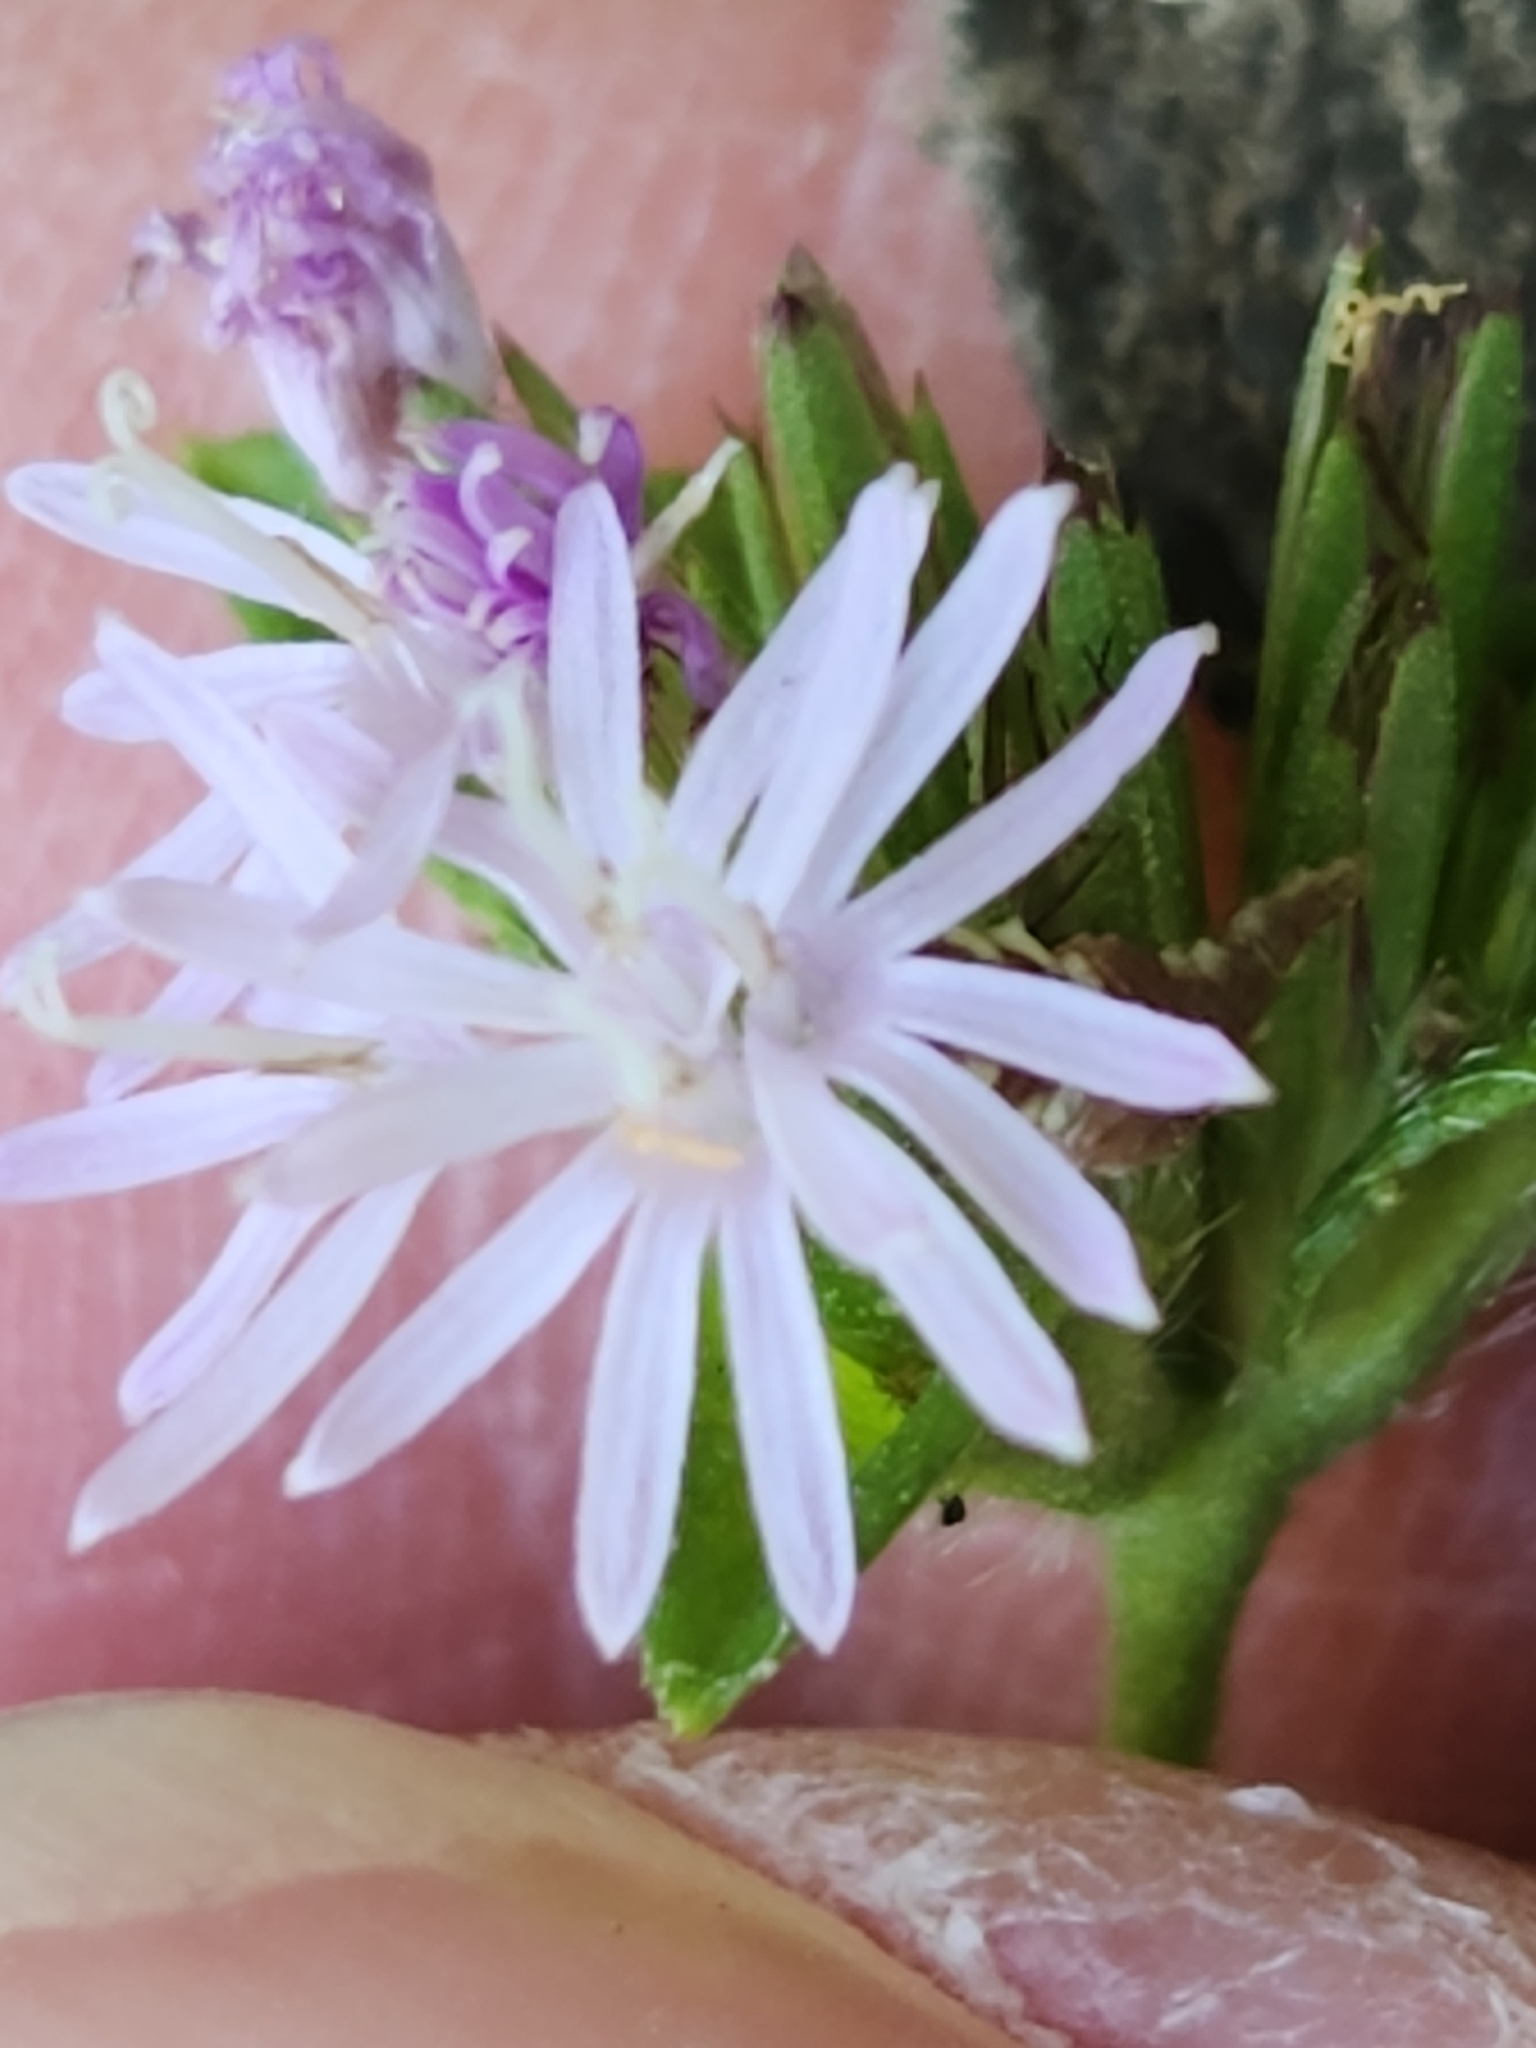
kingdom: Plantae
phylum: Tracheophyta
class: Magnoliopsida
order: Asterales
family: Asteraceae
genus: Elephantopus
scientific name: Elephantopus carolinianus
